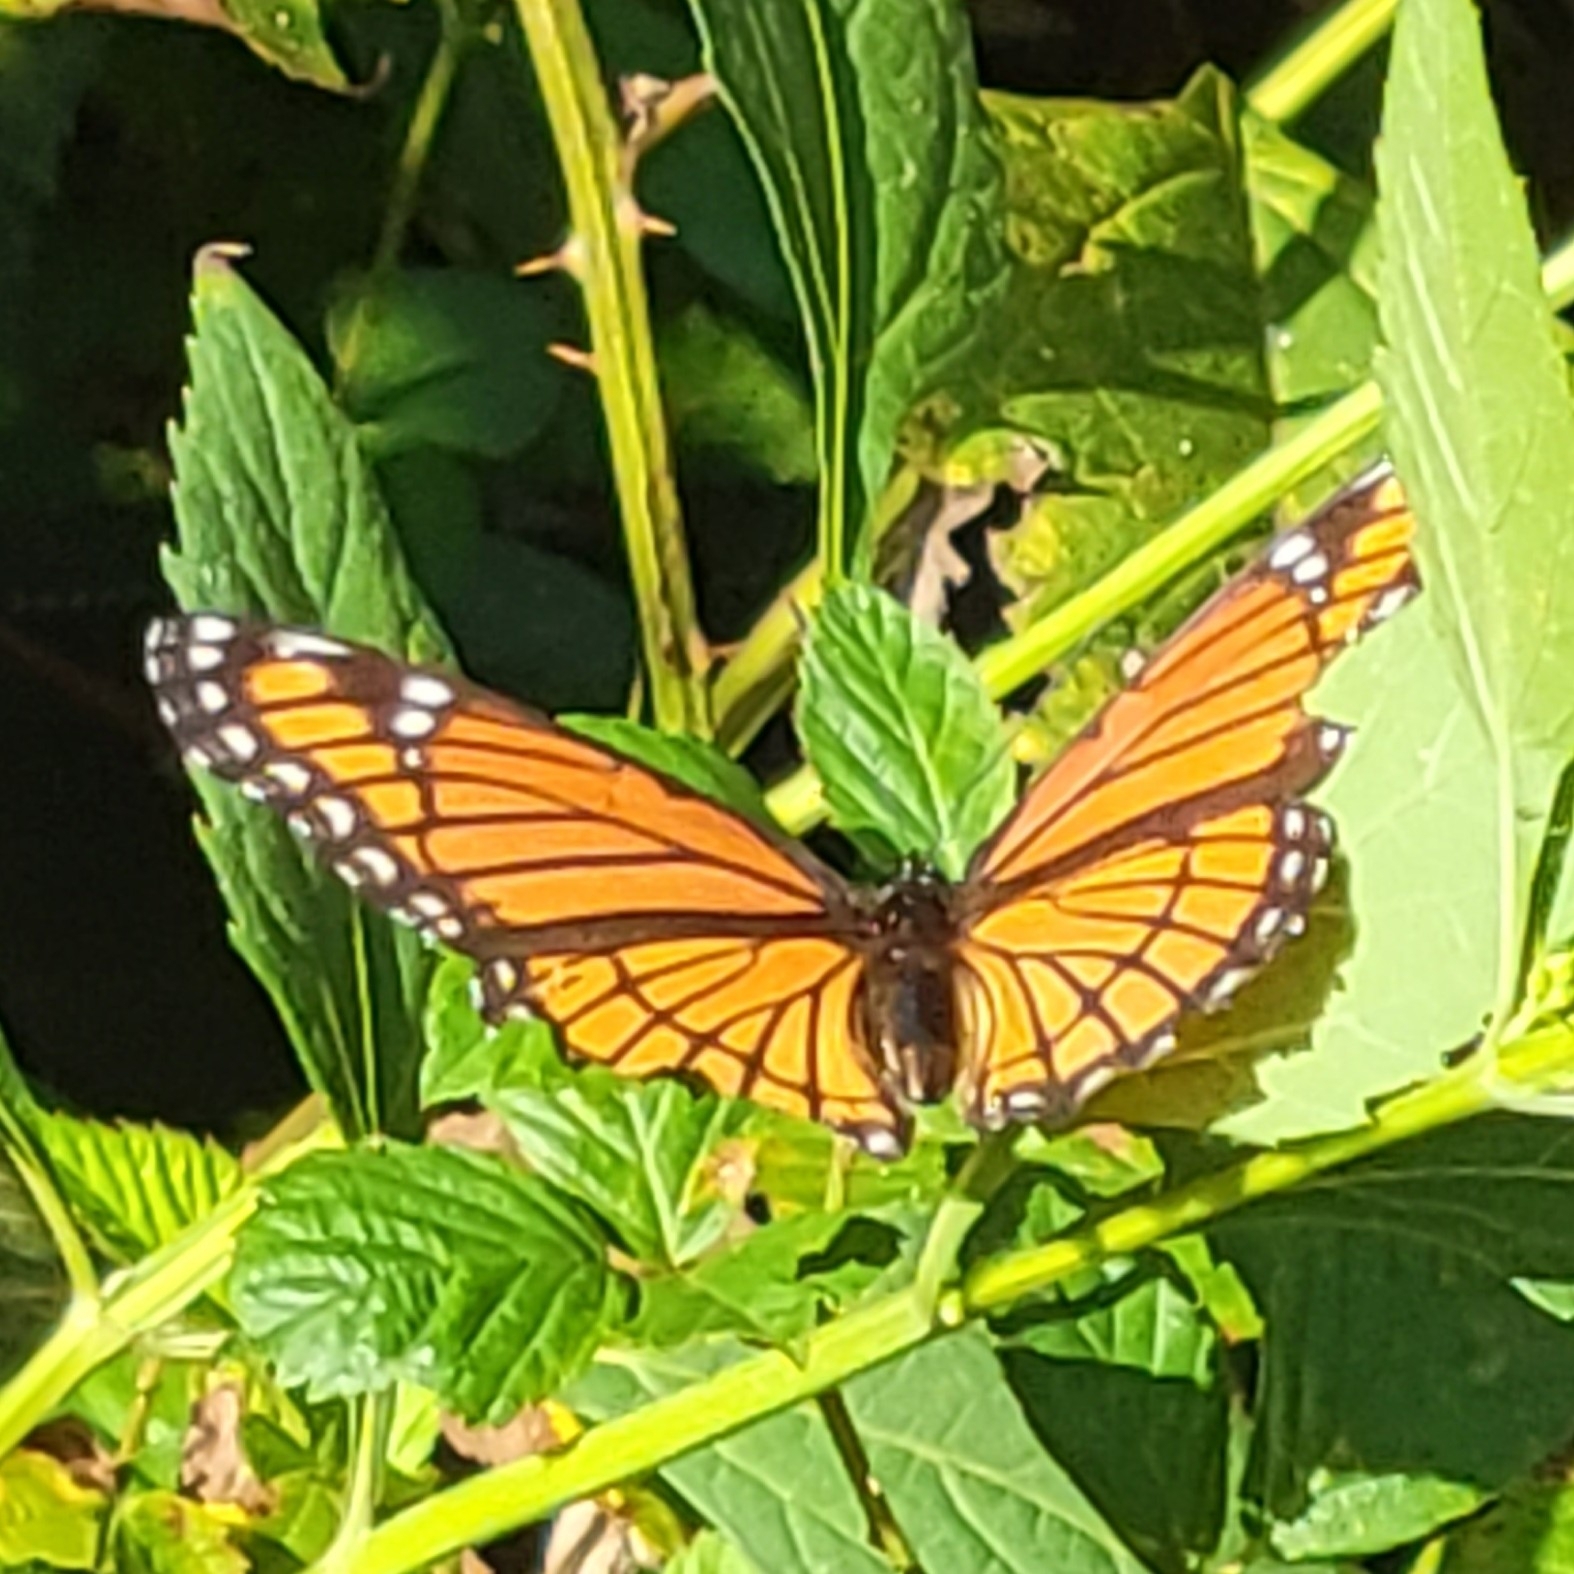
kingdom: Animalia
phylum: Arthropoda
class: Insecta
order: Lepidoptera
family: Nymphalidae
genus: Limenitis
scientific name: Limenitis archippus
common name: Viceroy
